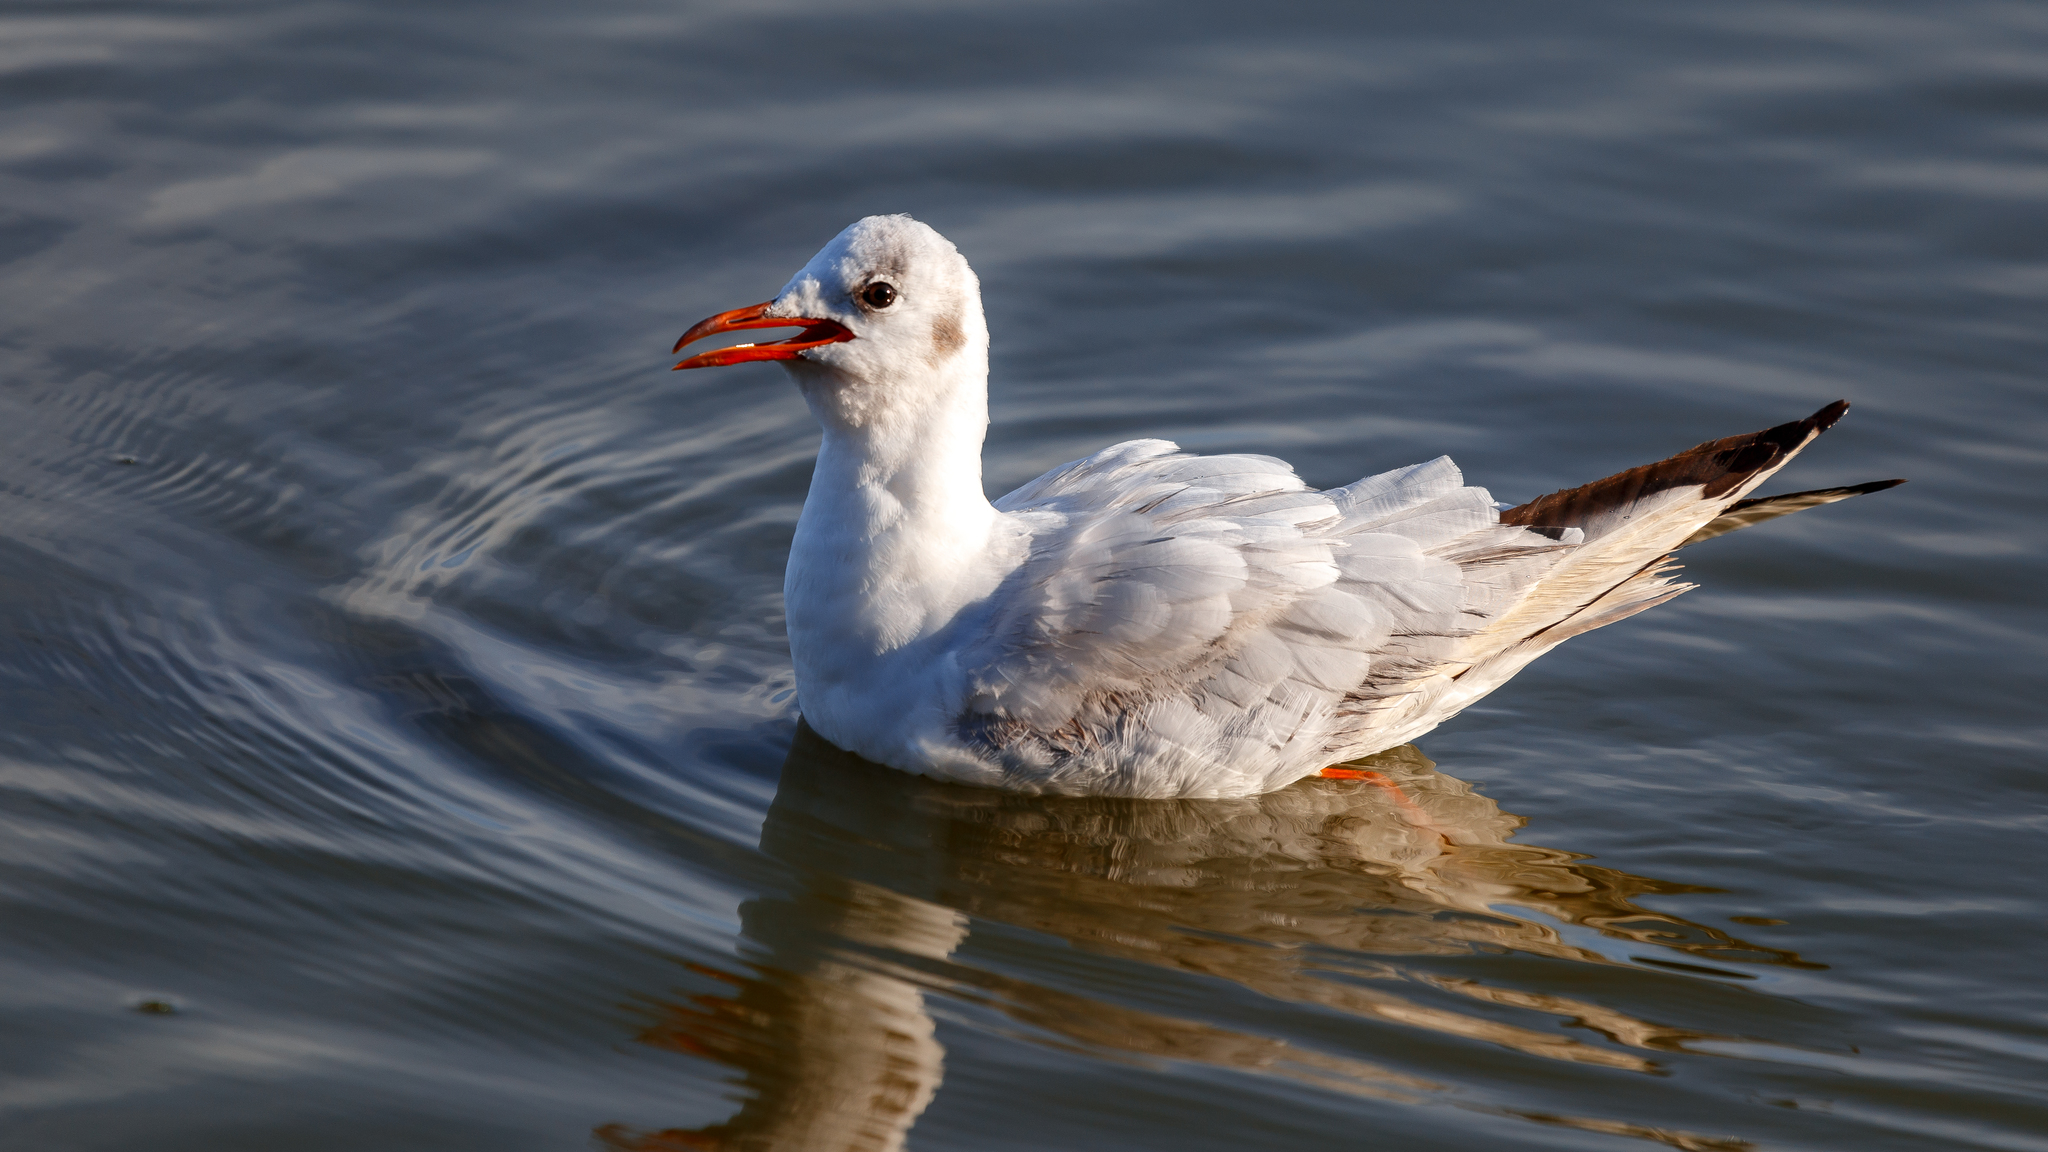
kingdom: Animalia
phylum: Chordata
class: Aves
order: Charadriiformes
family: Laridae
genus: Chroicocephalus
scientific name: Chroicocephalus ridibundus
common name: Black-headed gull
